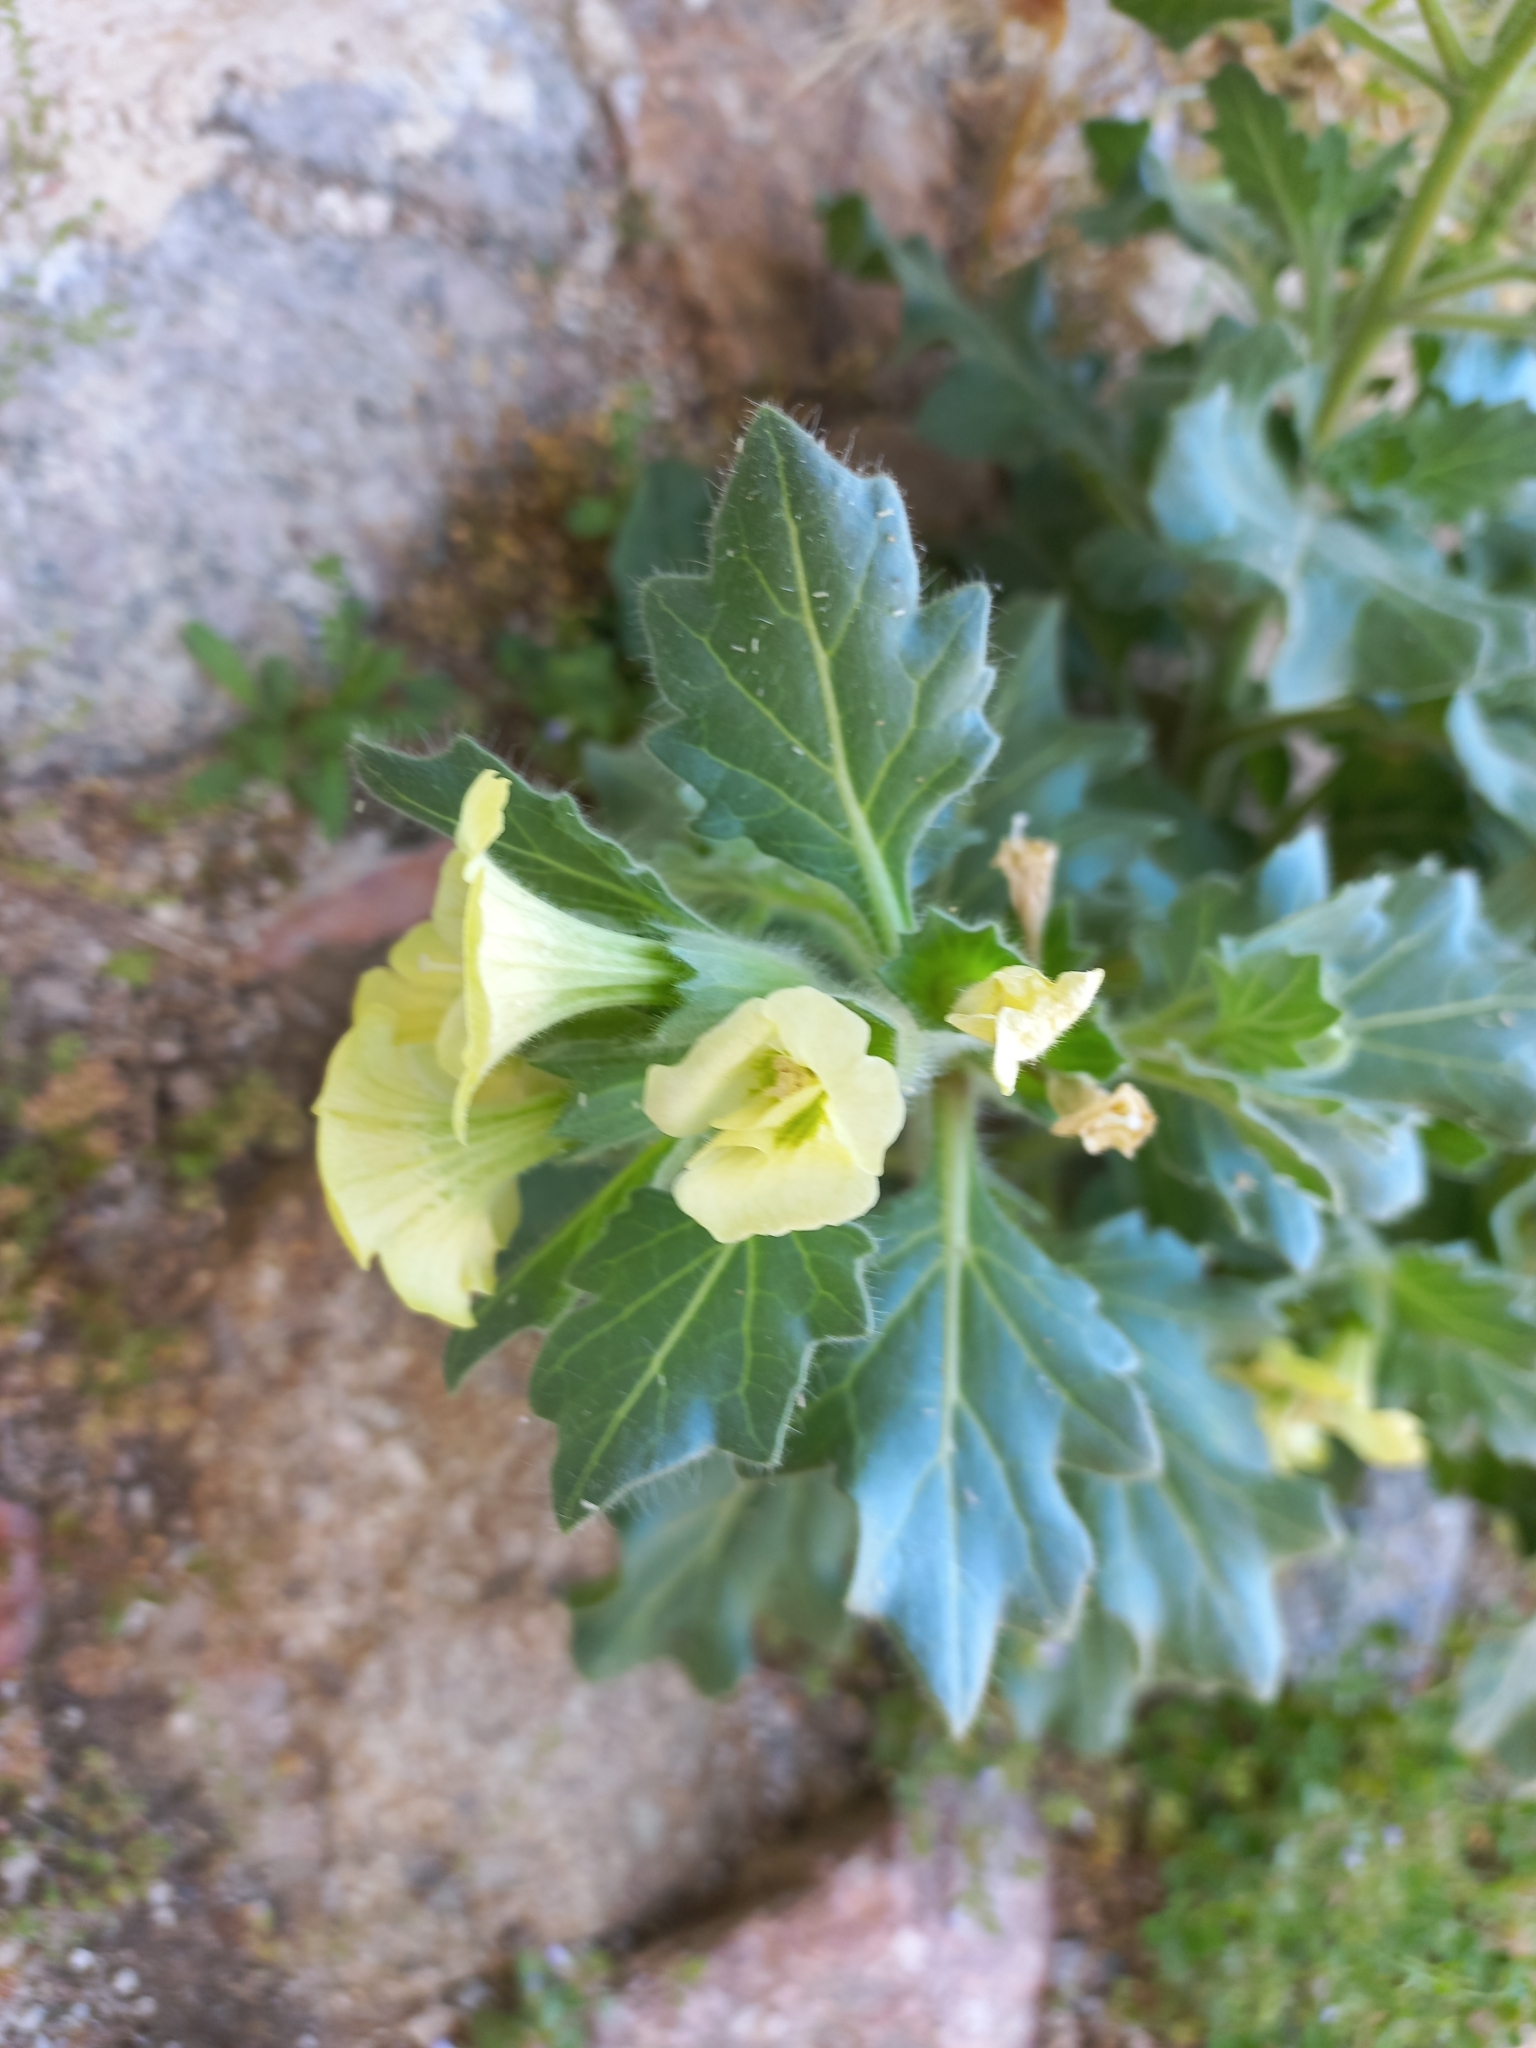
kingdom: Plantae
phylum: Tracheophyta
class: Magnoliopsida
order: Solanales
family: Solanaceae
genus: Hyoscyamus
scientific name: Hyoscyamus albus
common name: White henbane
